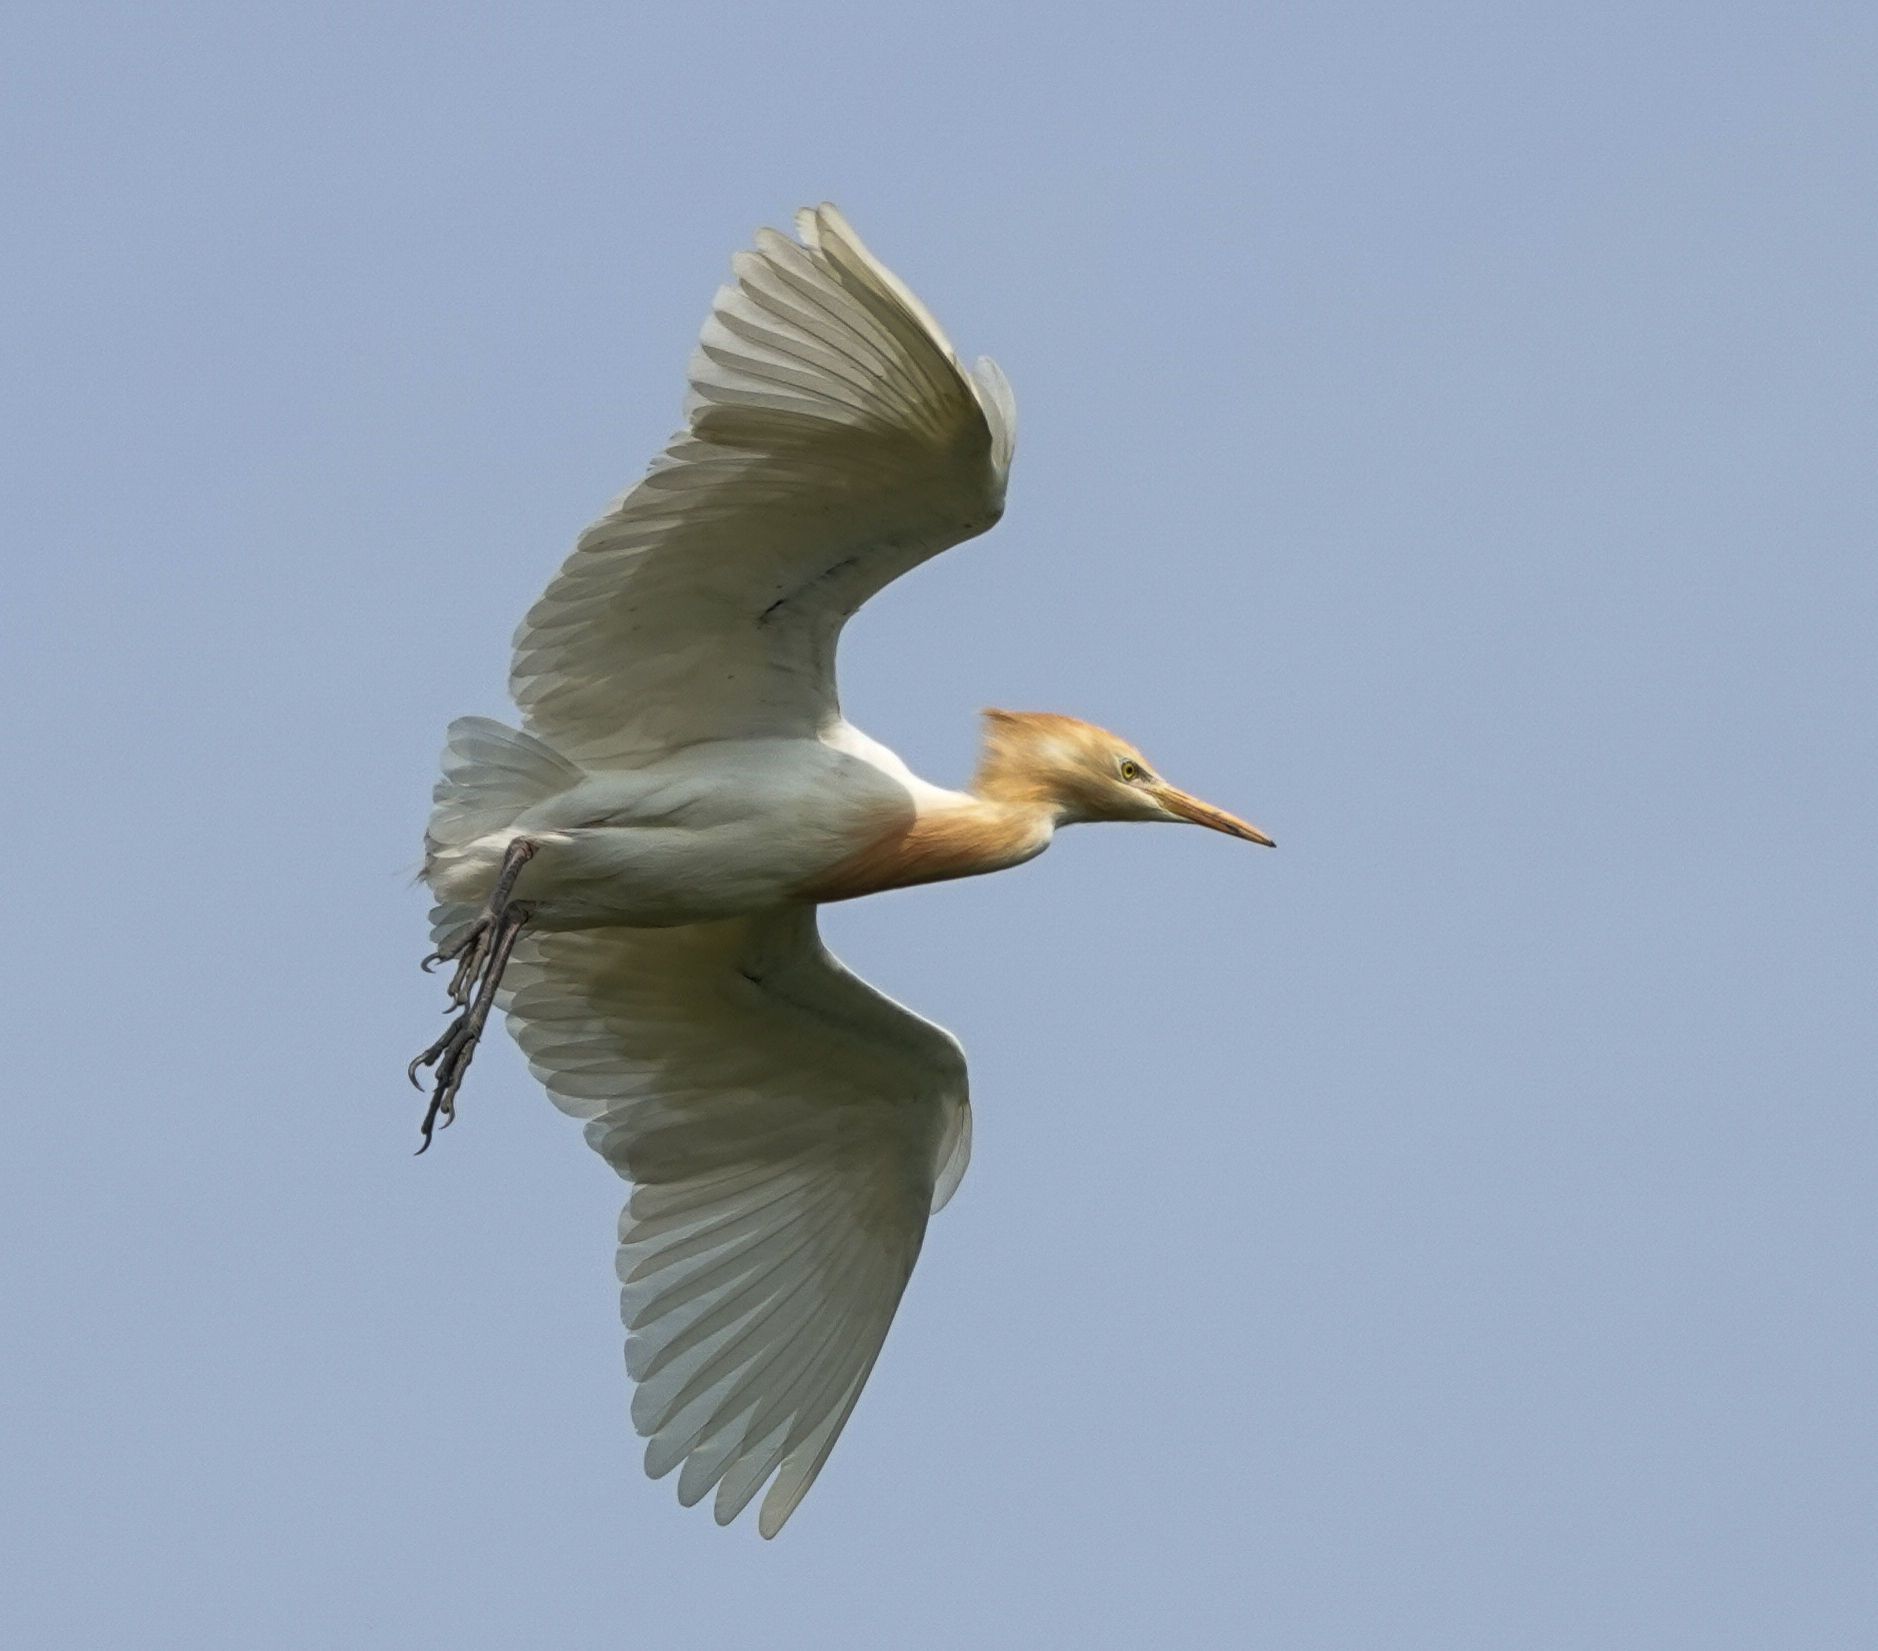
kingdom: Animalia
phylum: Chordata
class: Aves
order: Pelecaniformes
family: Ardeidae
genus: Bubulcus
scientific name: Bubulcus coromandus
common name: Eastern cattle egret
